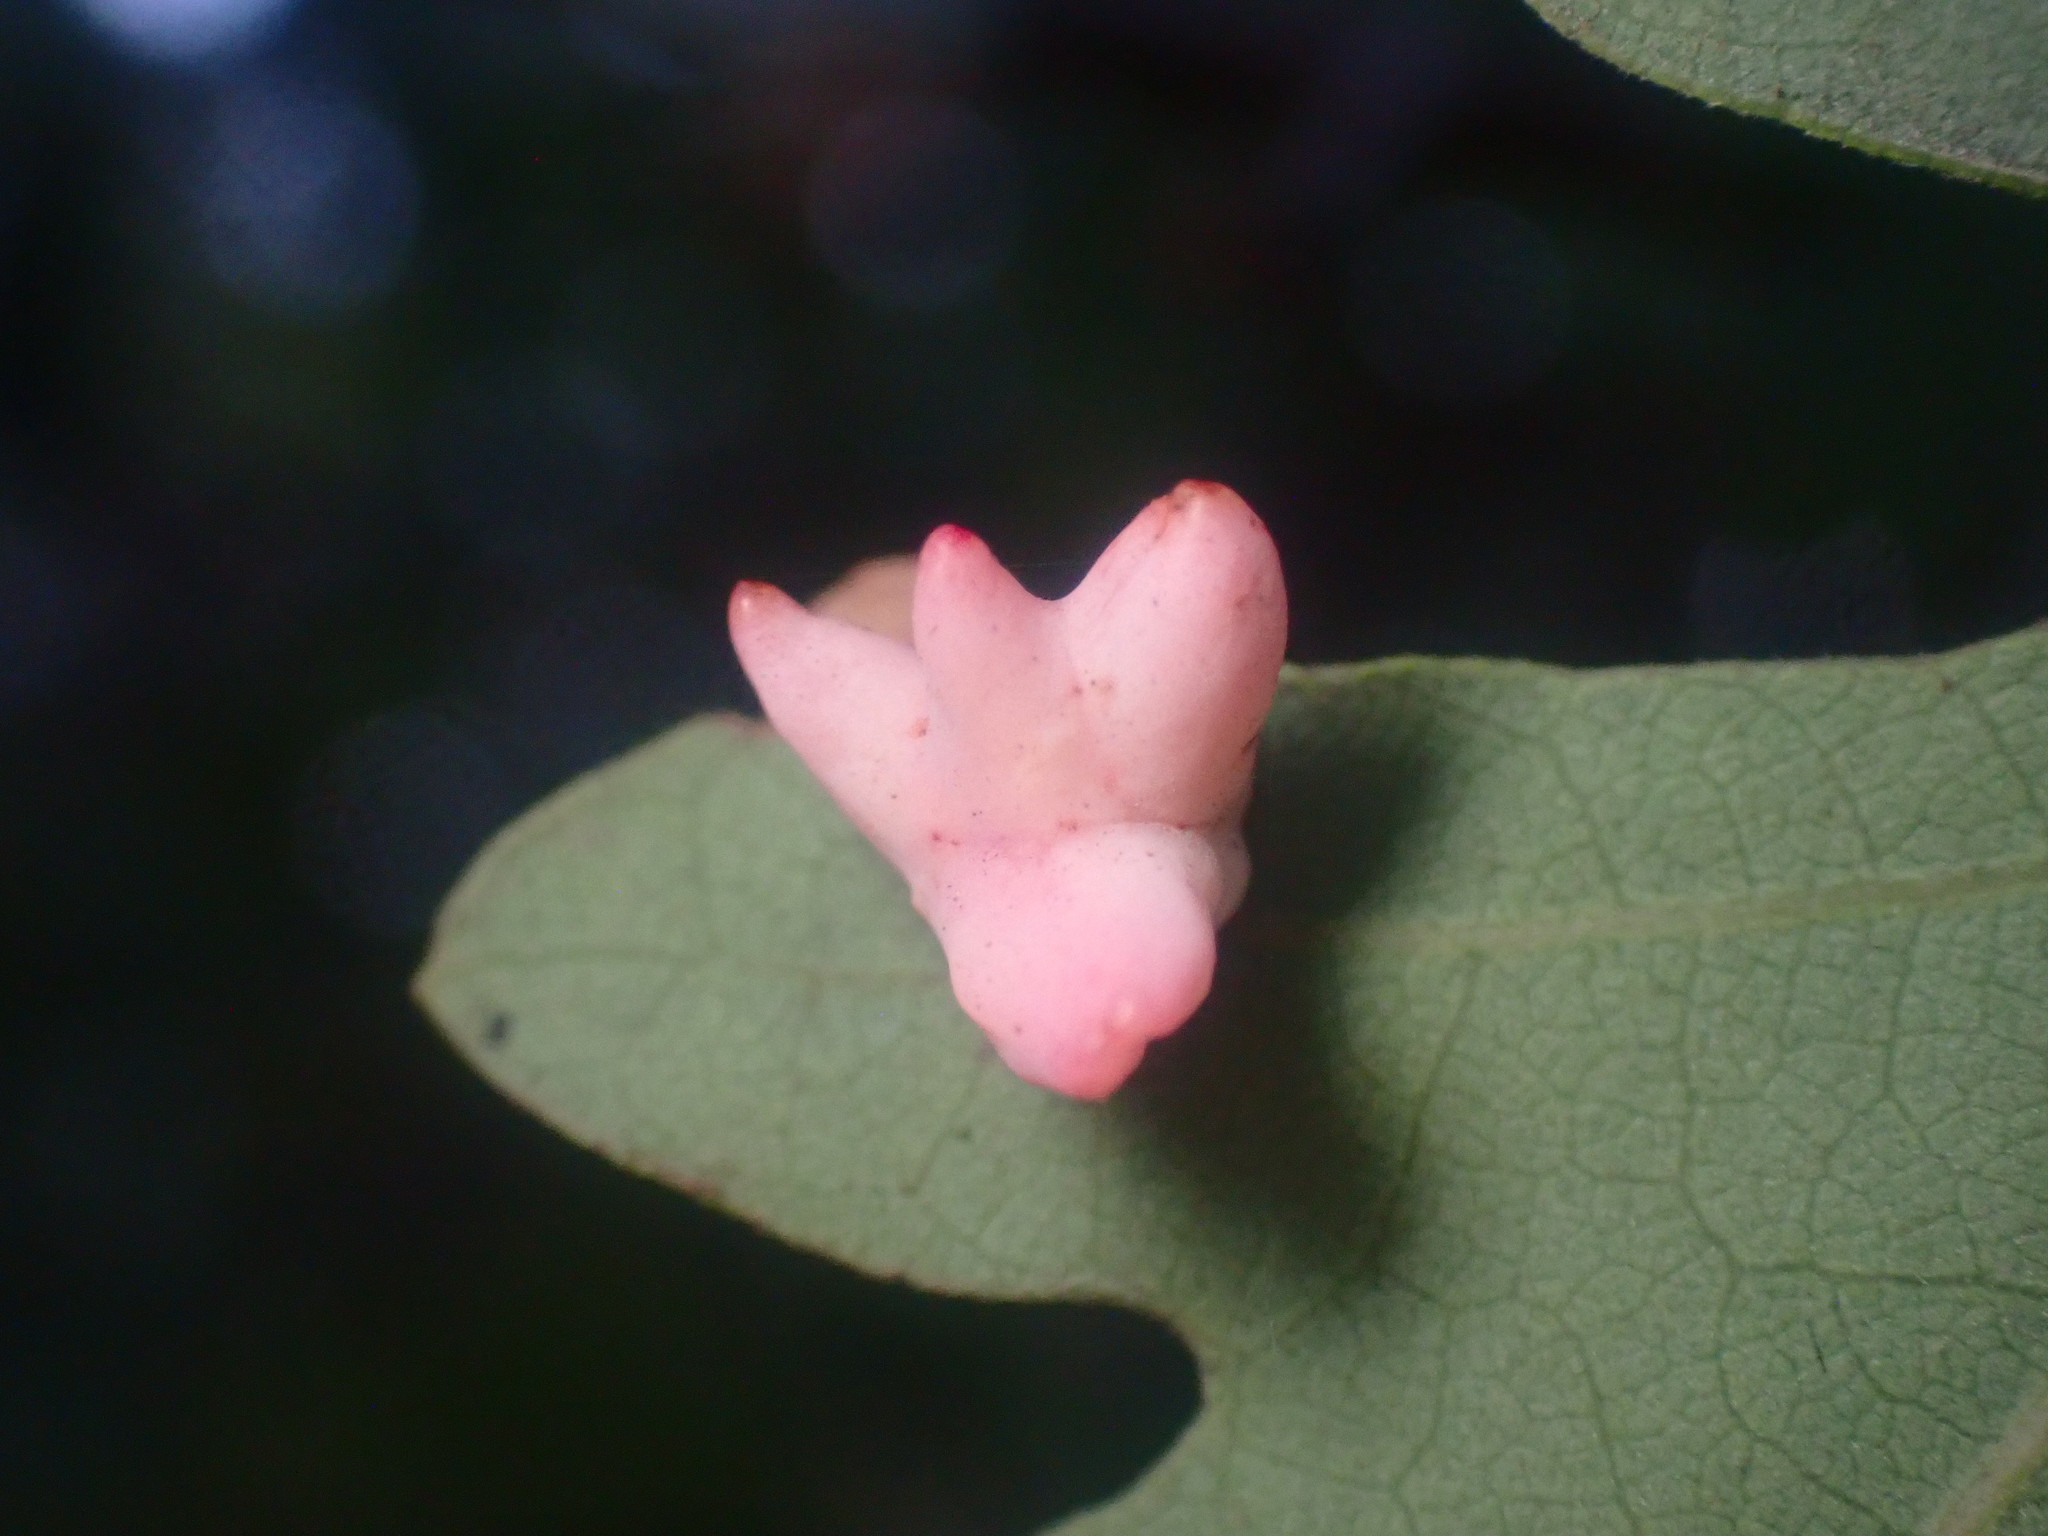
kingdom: Animalia
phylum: Arthropoda
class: Insecta
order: Hymenoptera
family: Cynipidae
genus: Cynips
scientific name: Cynips douglasi
